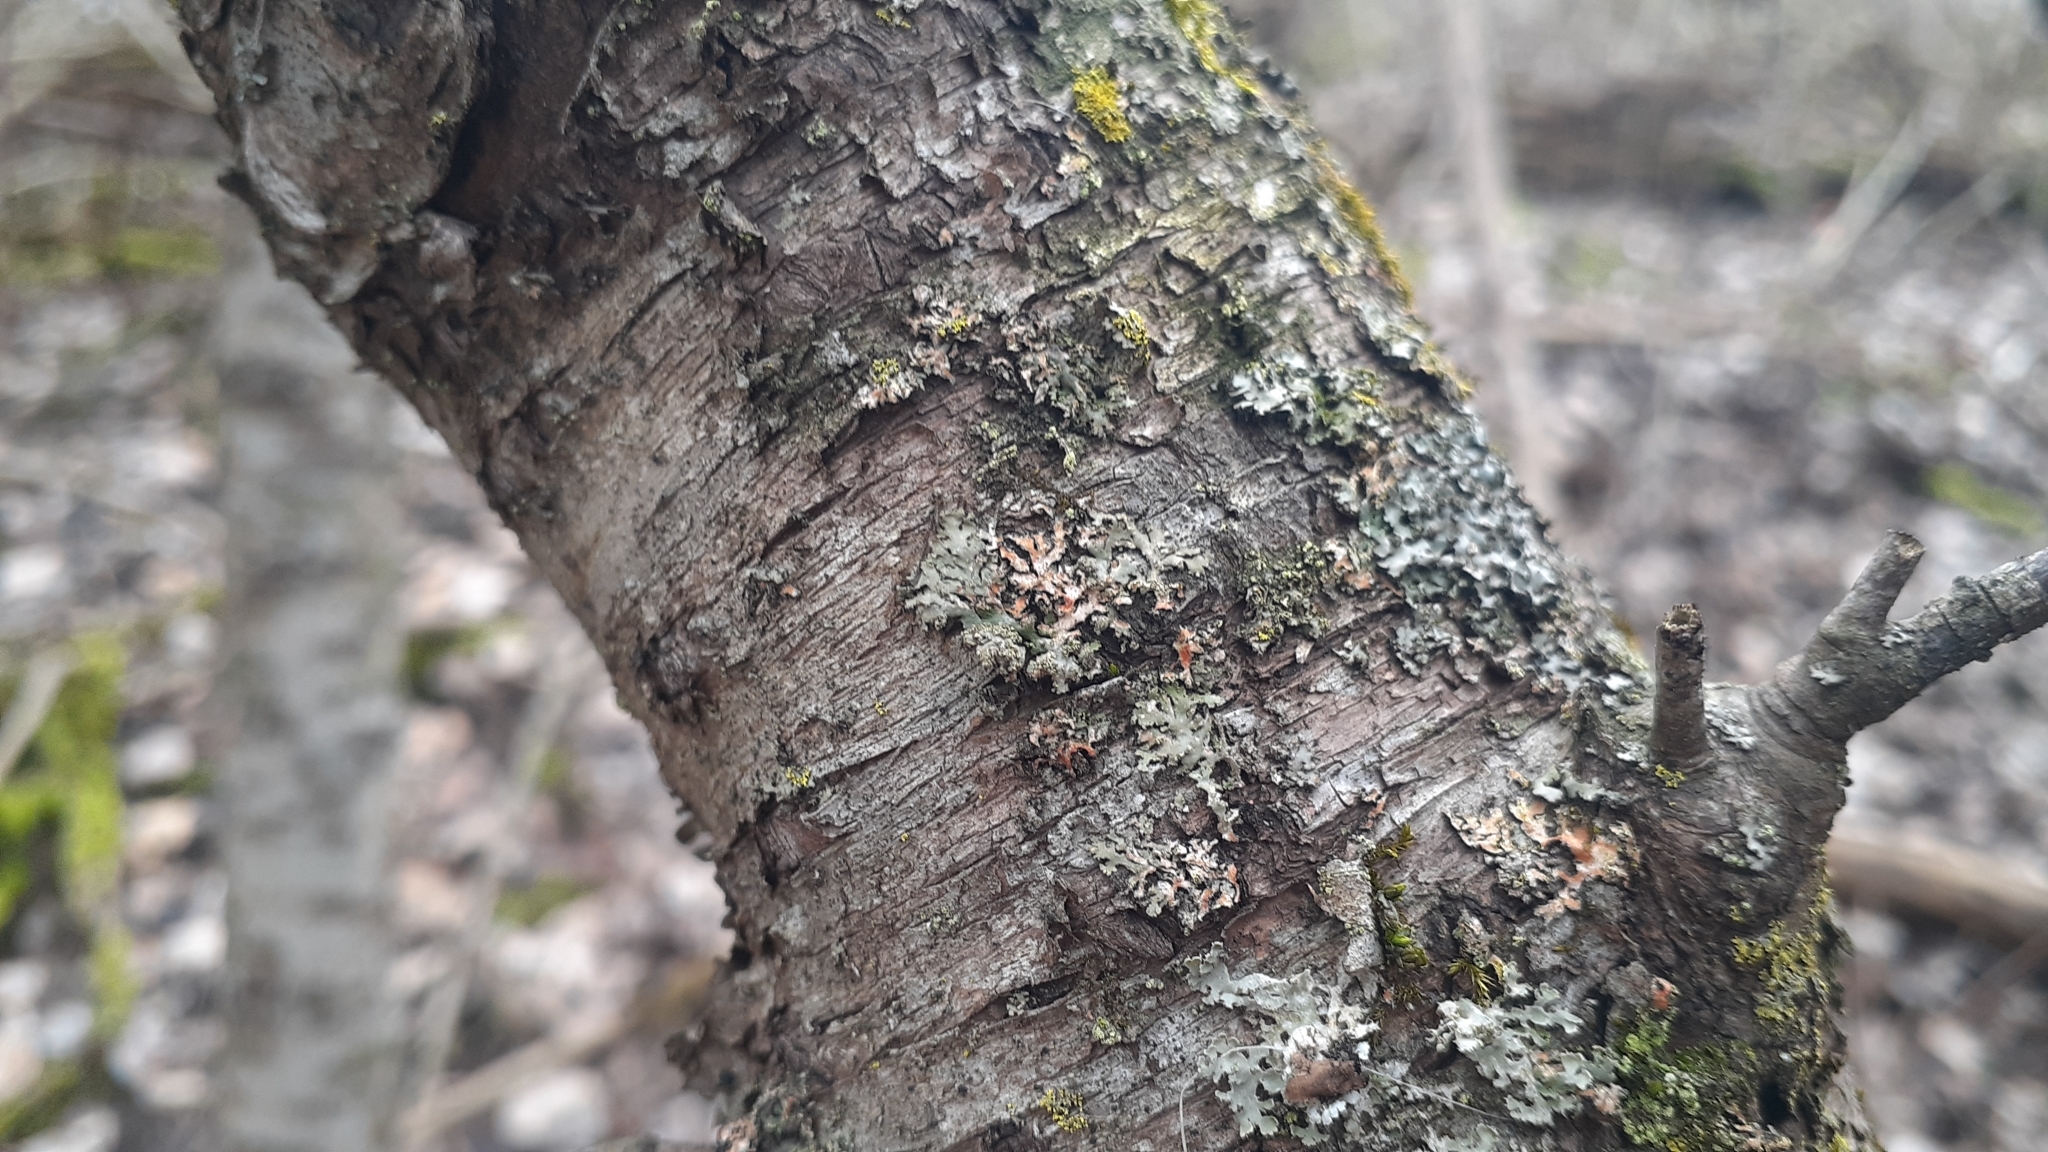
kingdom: Fungi
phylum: Ascomycota
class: Lecanoromycetes
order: Caliciales
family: Physciaceae
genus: Phaeophyscia
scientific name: Phaeophyscia rubropulchra
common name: Orange-cored shadow lichen
